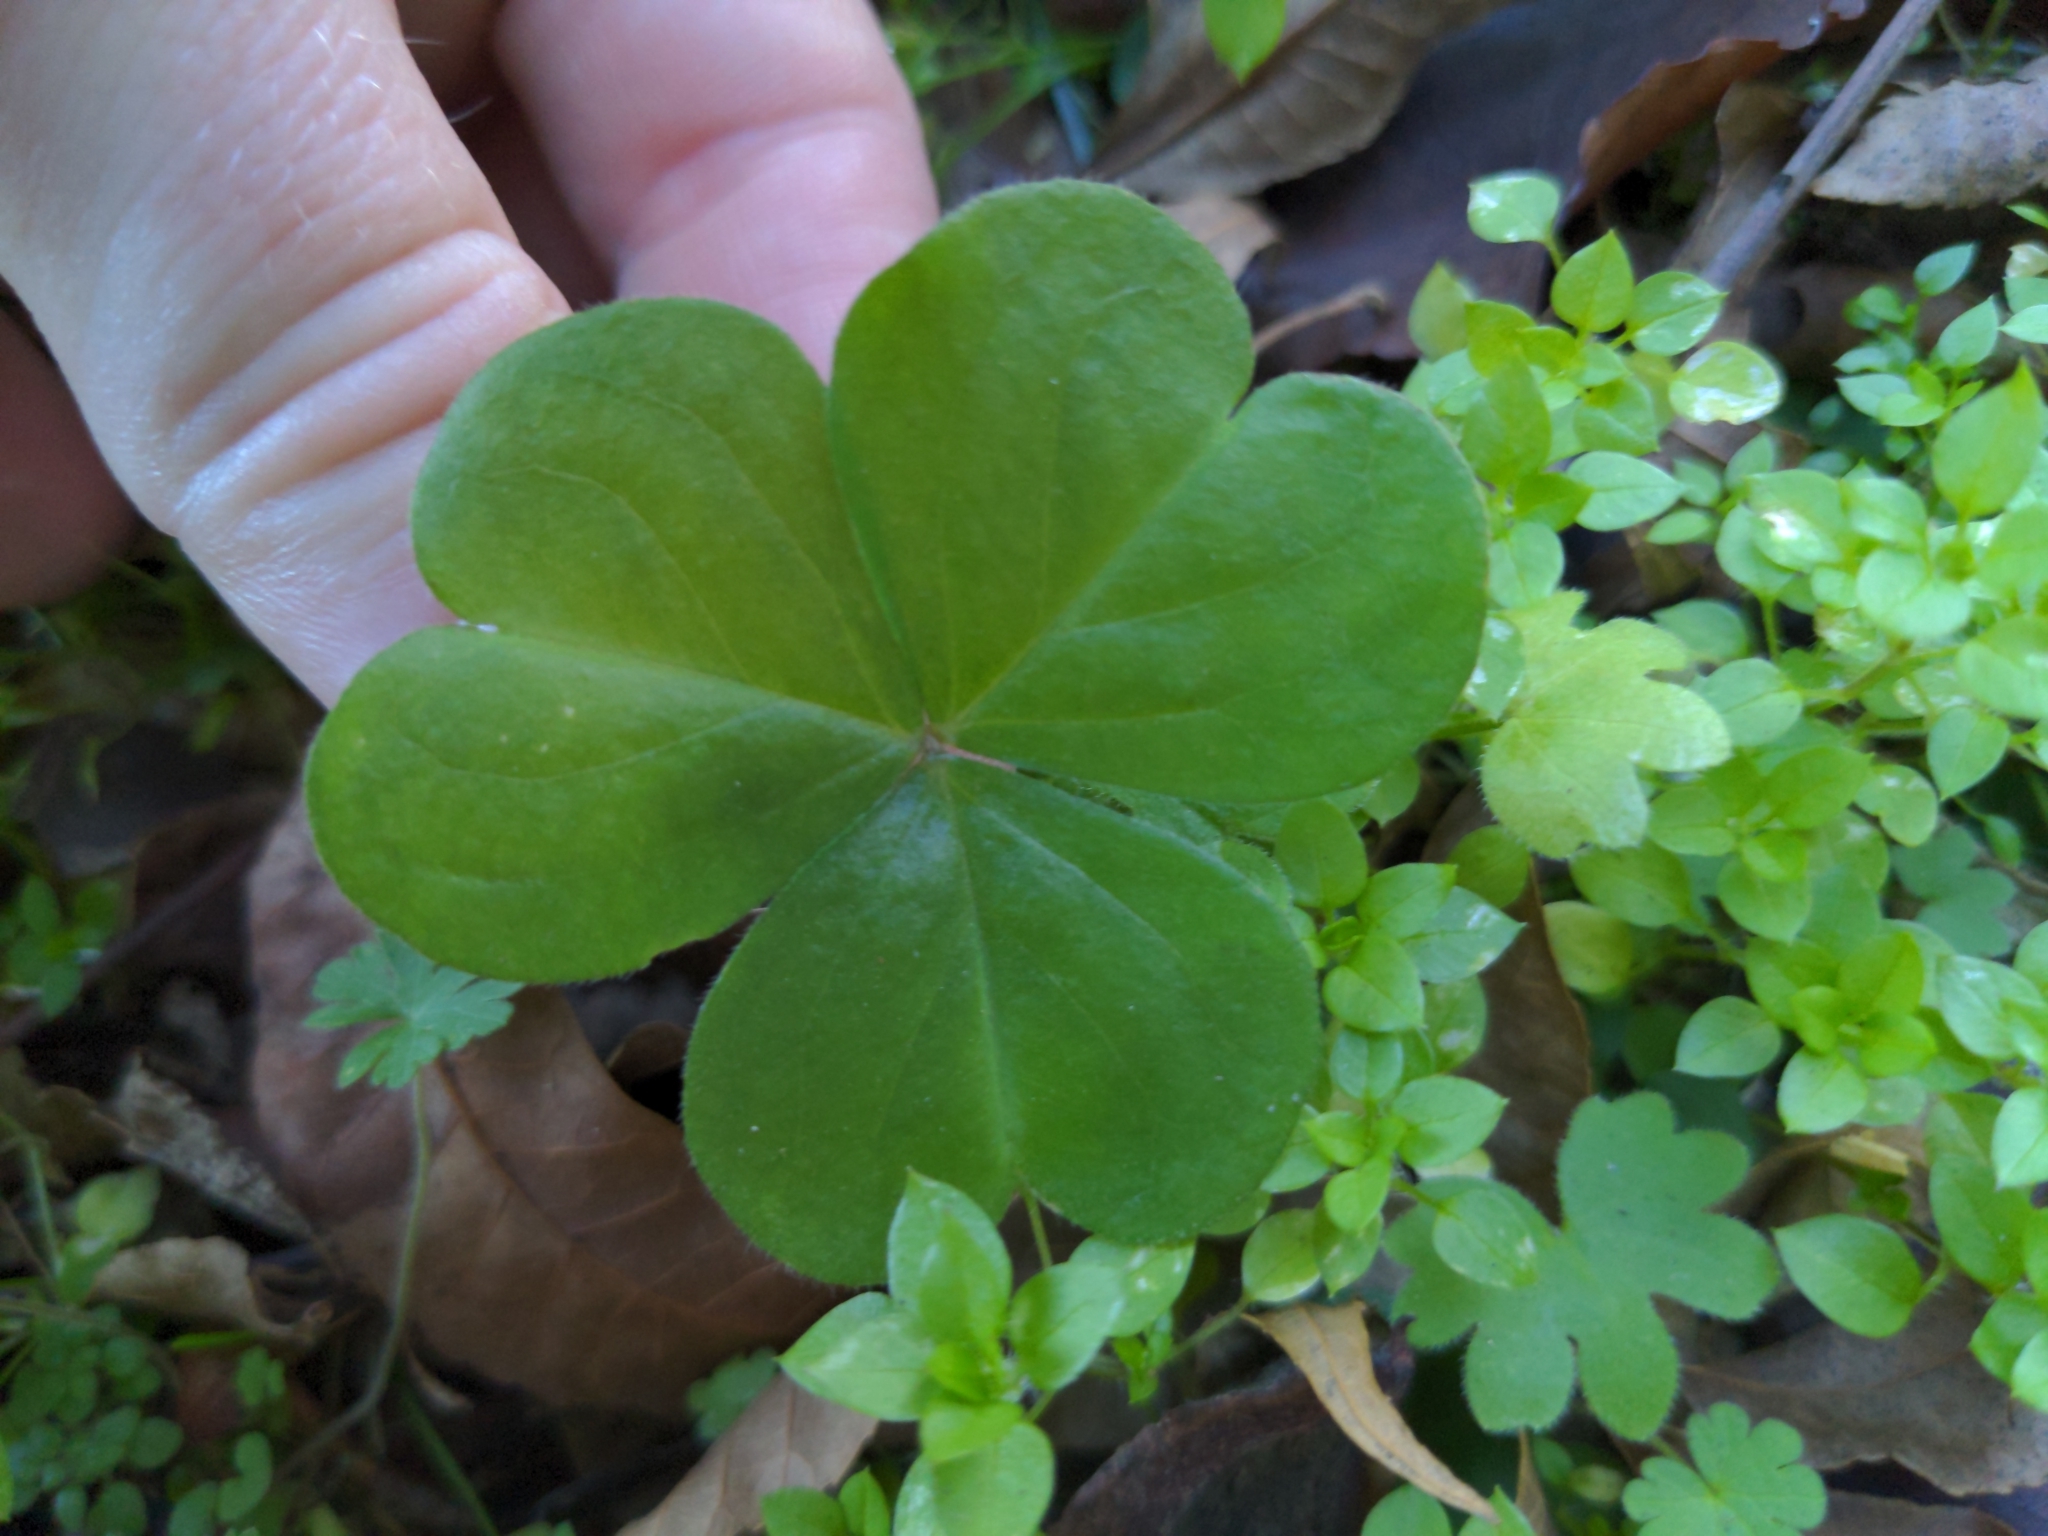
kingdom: Plantae
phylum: Tracheophyta
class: Magnoliopsida
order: Oxalidales
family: Oxalidaceae
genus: Oxalis
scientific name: Oxalis debilis
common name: Large-flowered pink-sorrel
